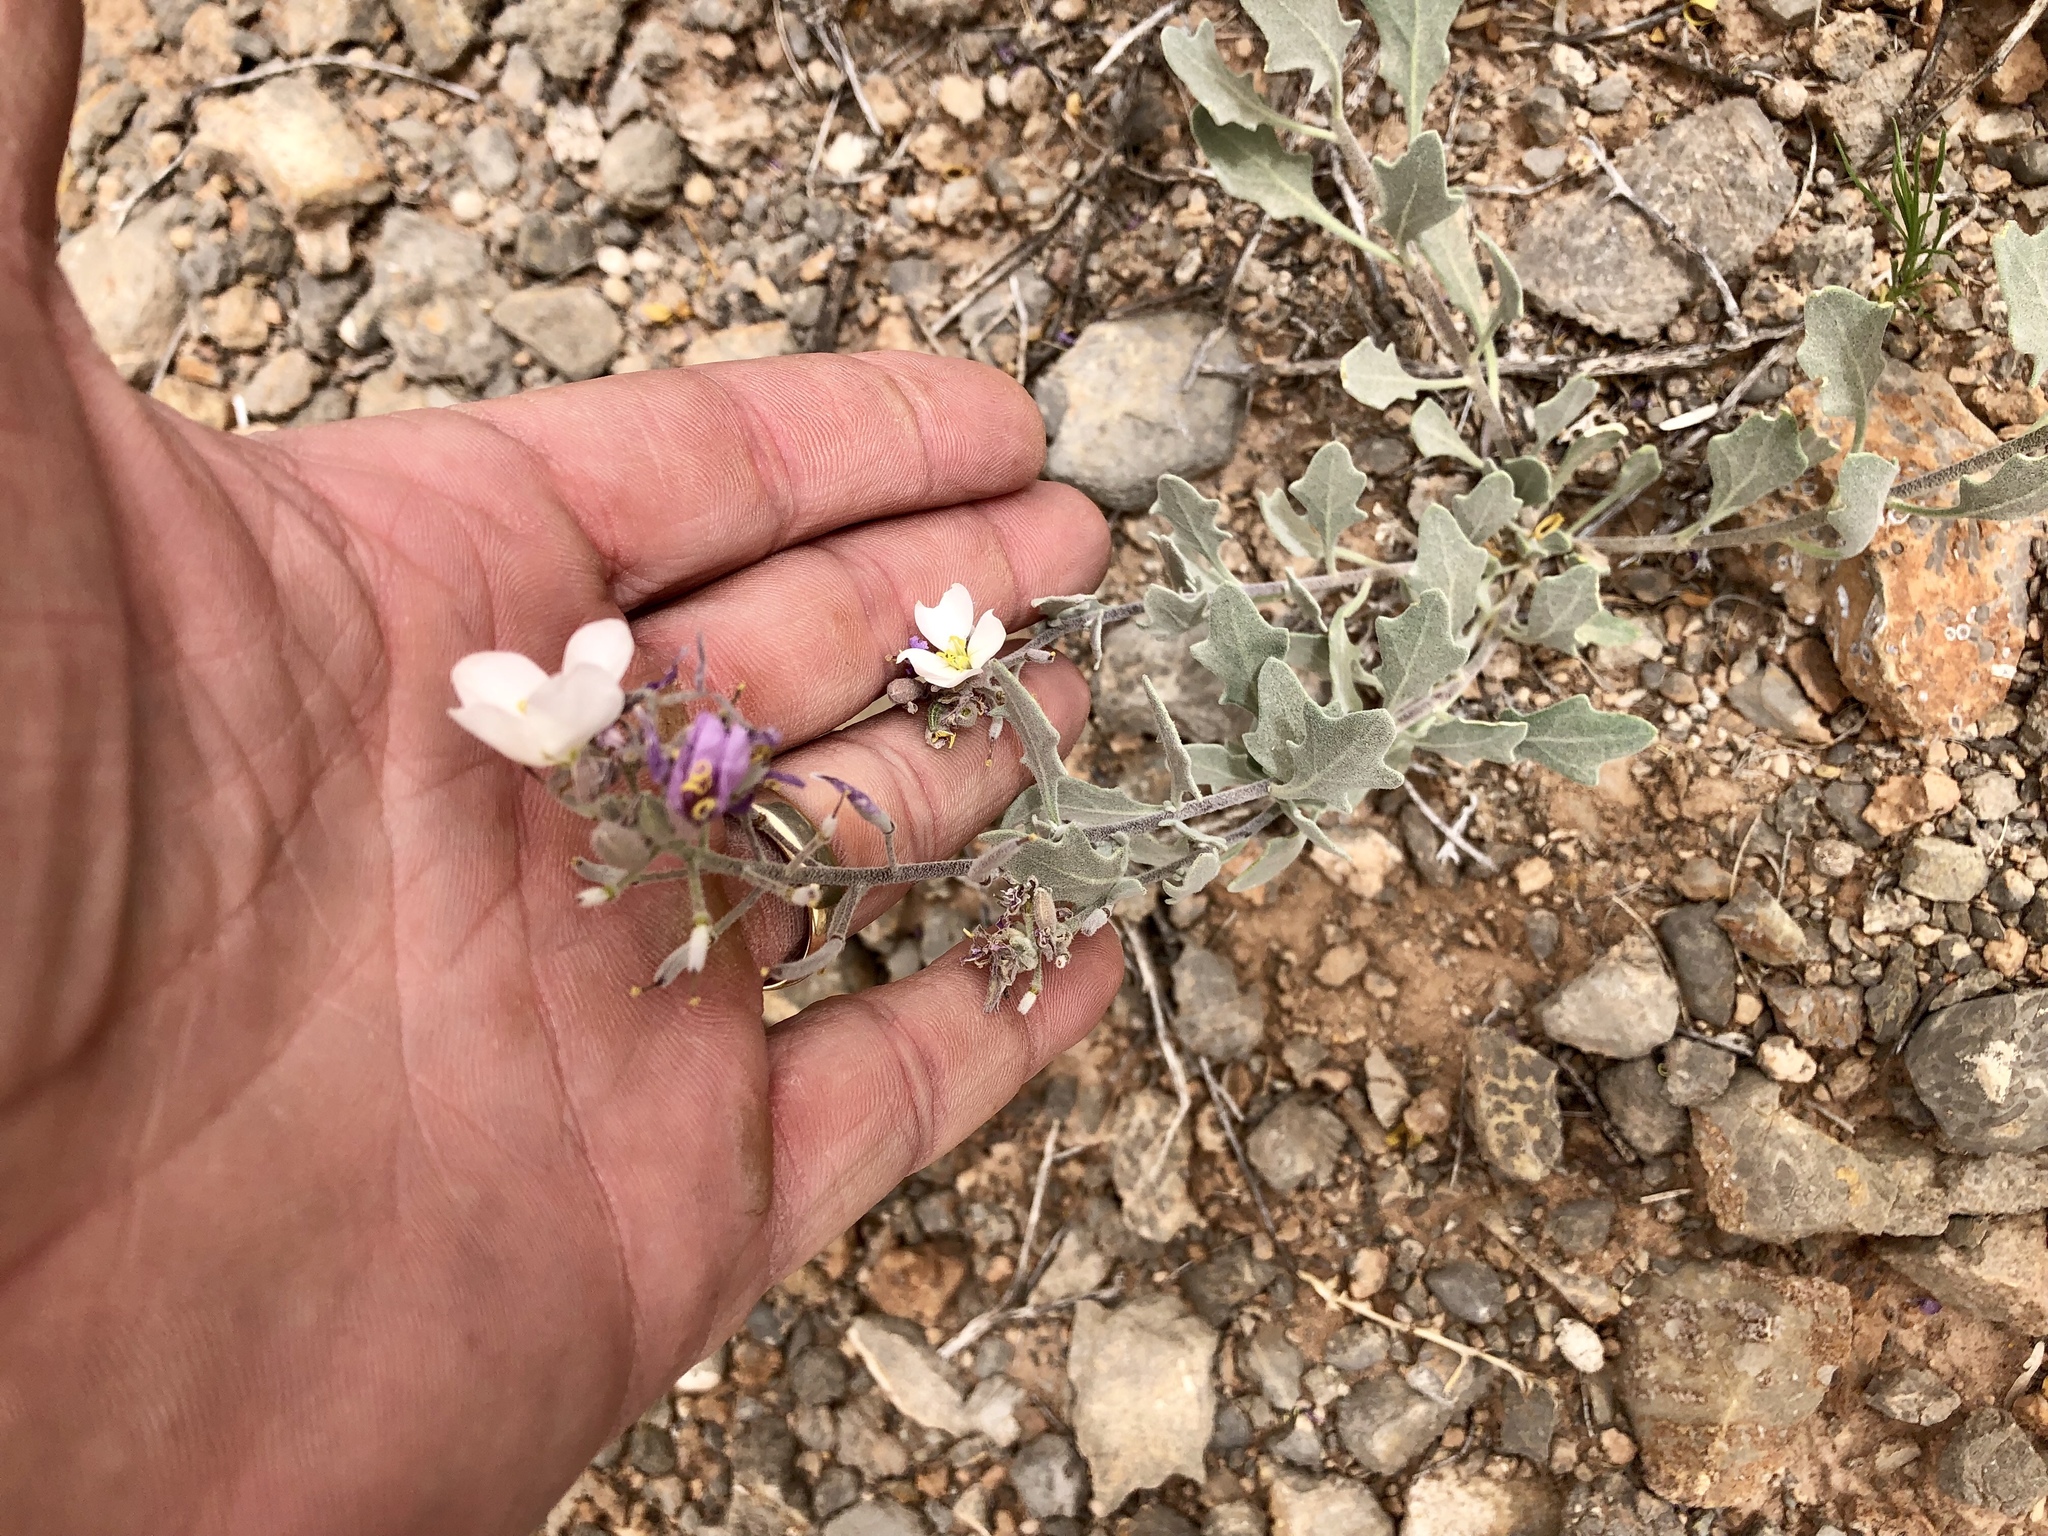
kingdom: Plantae
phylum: Tracheophyta
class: Magnoliopsida
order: Brassicales
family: Brassicaceae
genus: Nerisyrenia
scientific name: Nerisyrenia camporum
